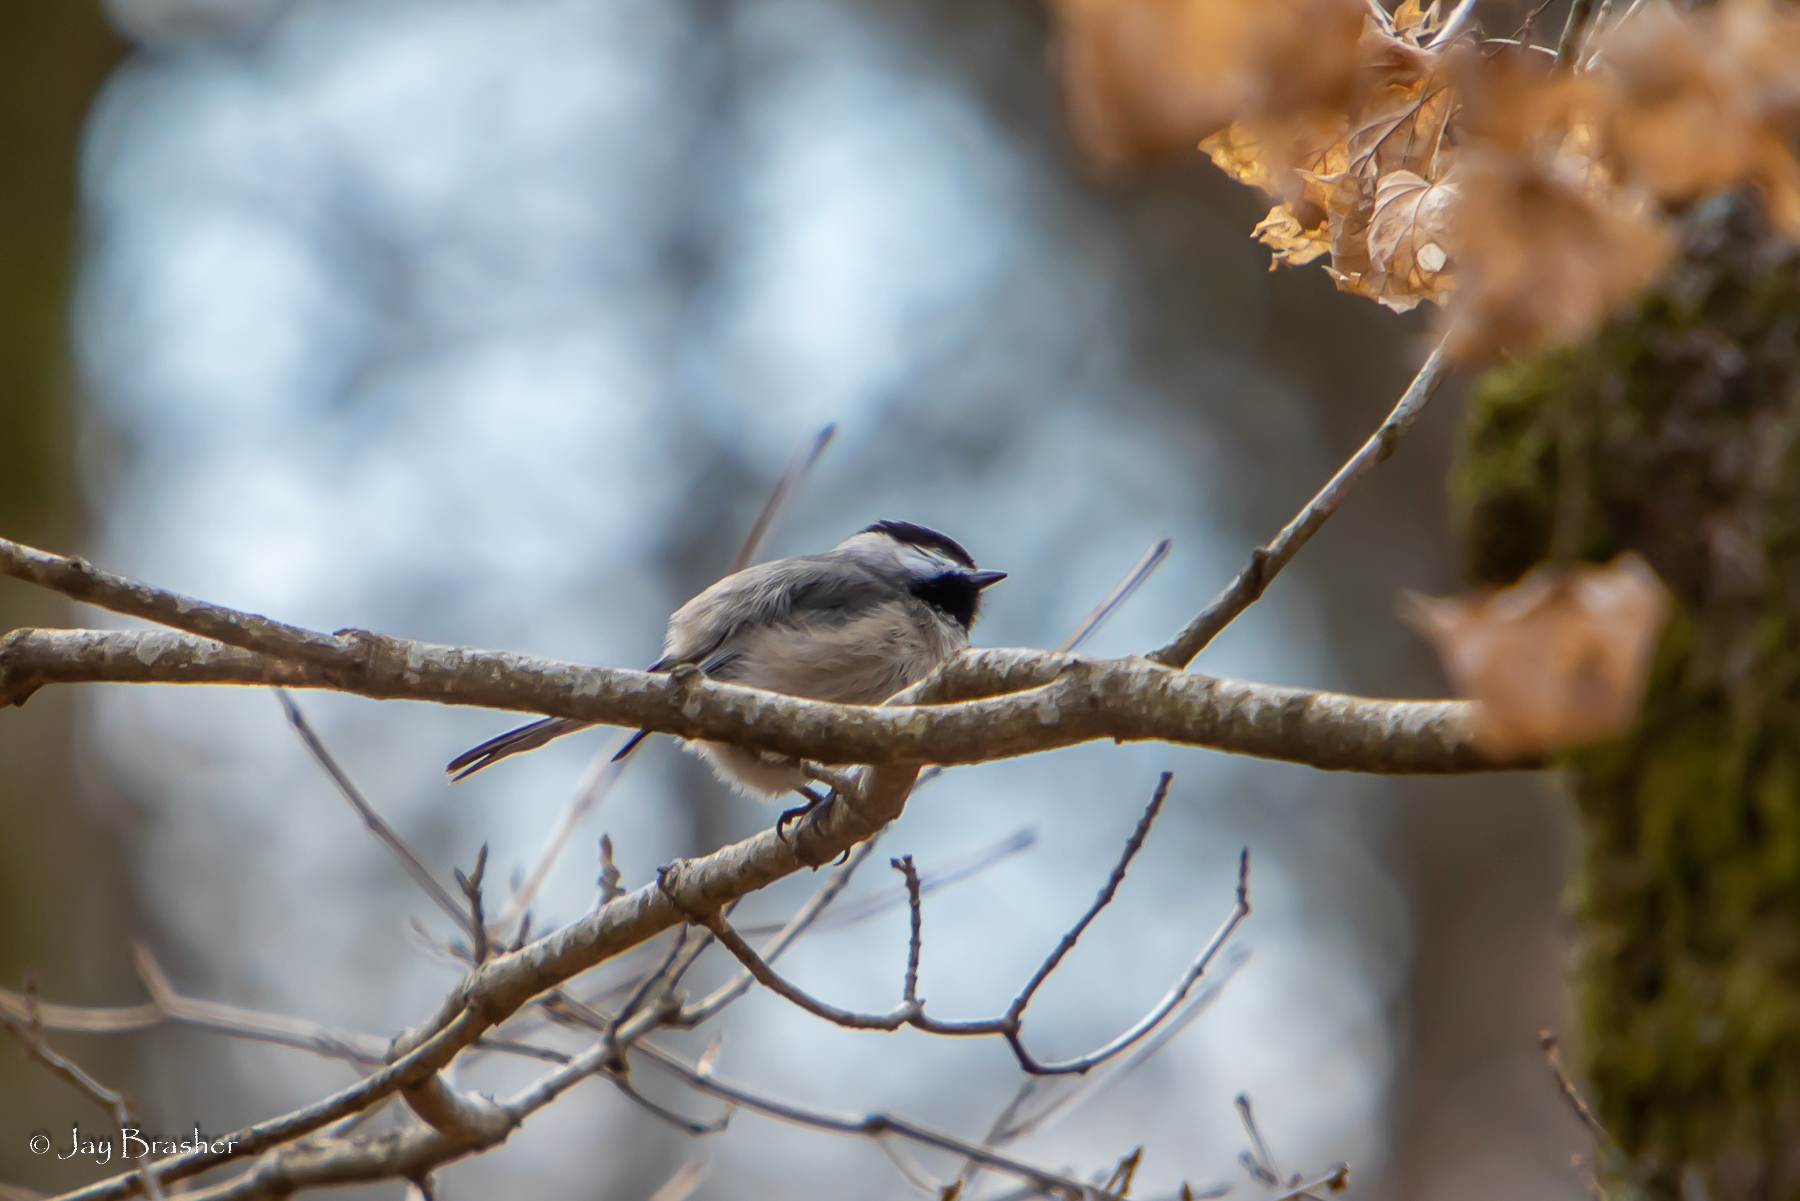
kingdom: Animalia
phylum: Chordata
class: Aves
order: Passeriformes
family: Paridae
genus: Poecile
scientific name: Poecile carolinensis
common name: Carolina chickadee
